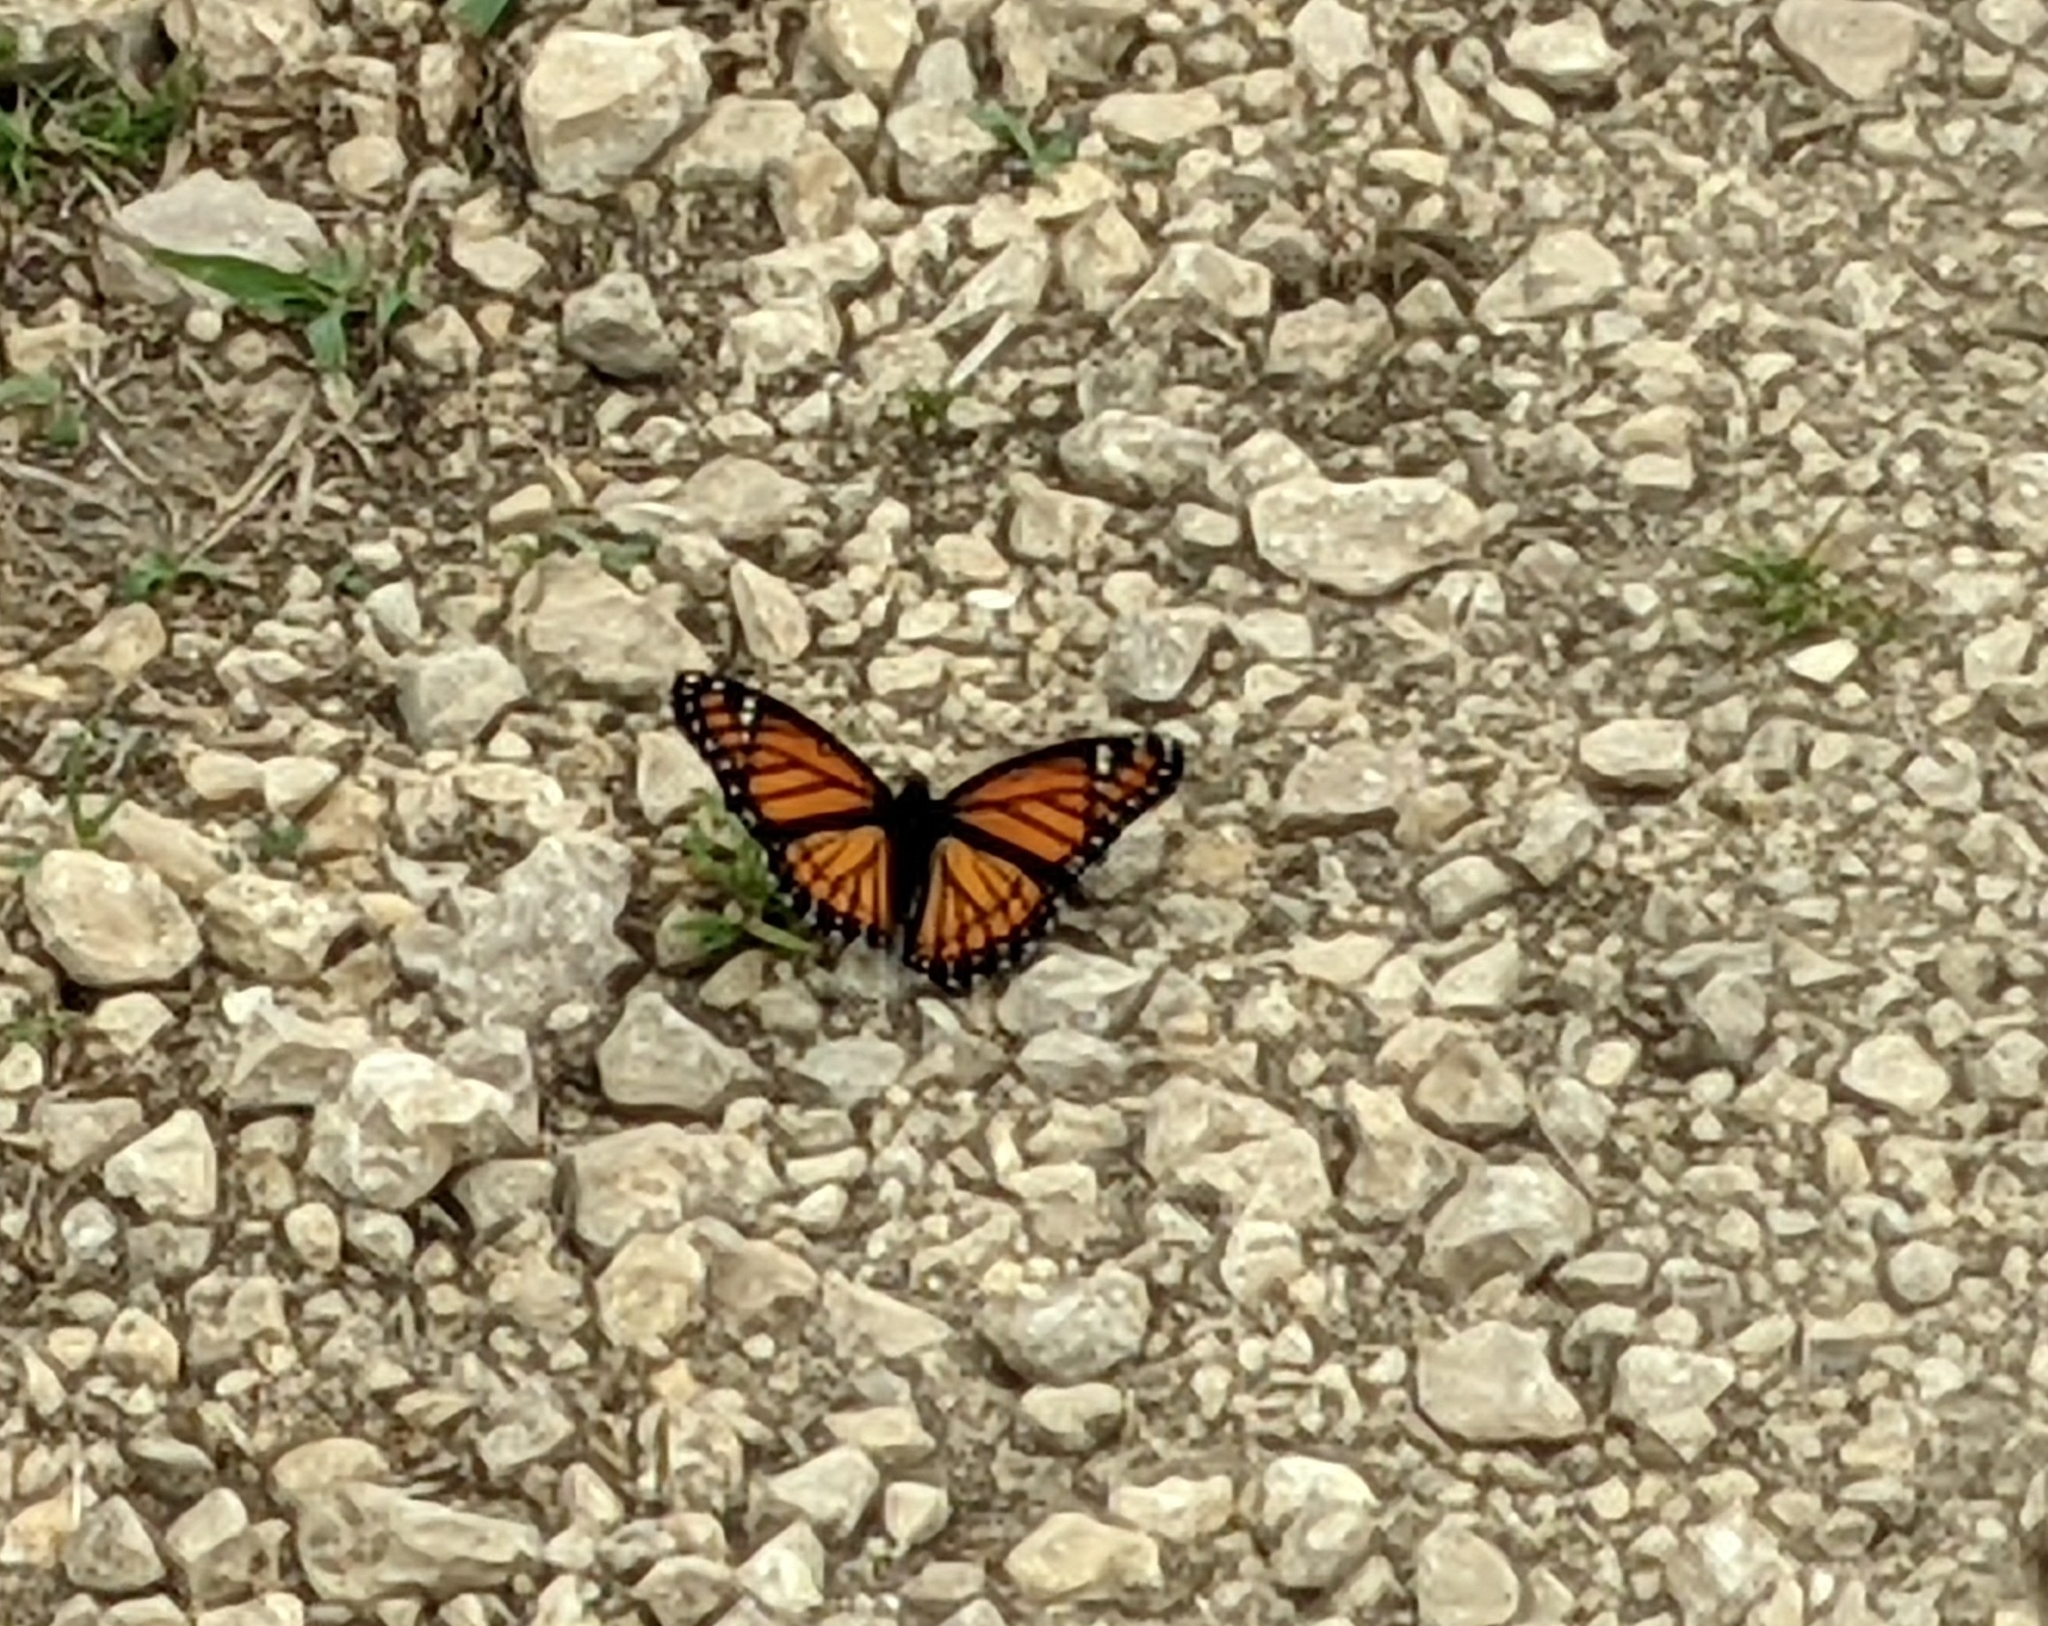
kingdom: Animalia
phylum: Arthropoda
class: Insecta
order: Lepidoptera
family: Nymphalidae
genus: Limenitis
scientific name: Limenitis archippus
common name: Viceroy
